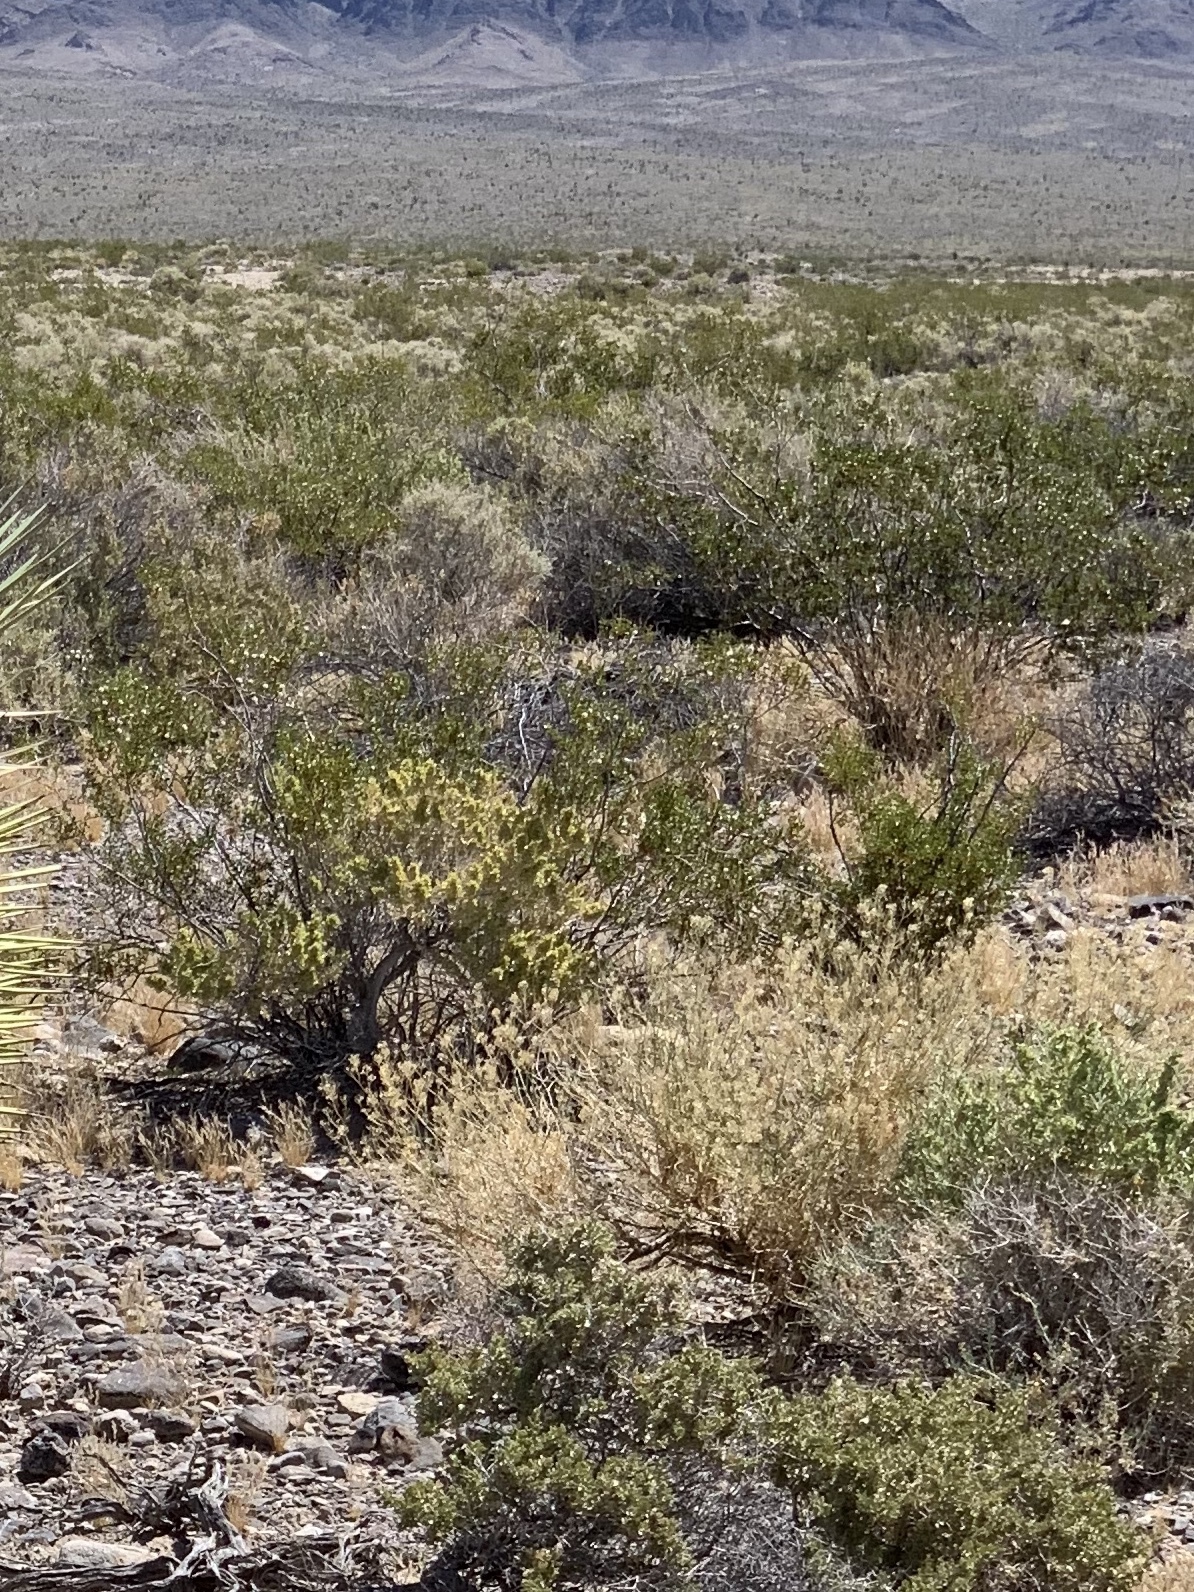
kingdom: Plantae
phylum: Tracheophyta
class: Magnoliopsida
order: Zygophyllales
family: Zygophyllaceae
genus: Larrea
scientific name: Larrea tridentata
